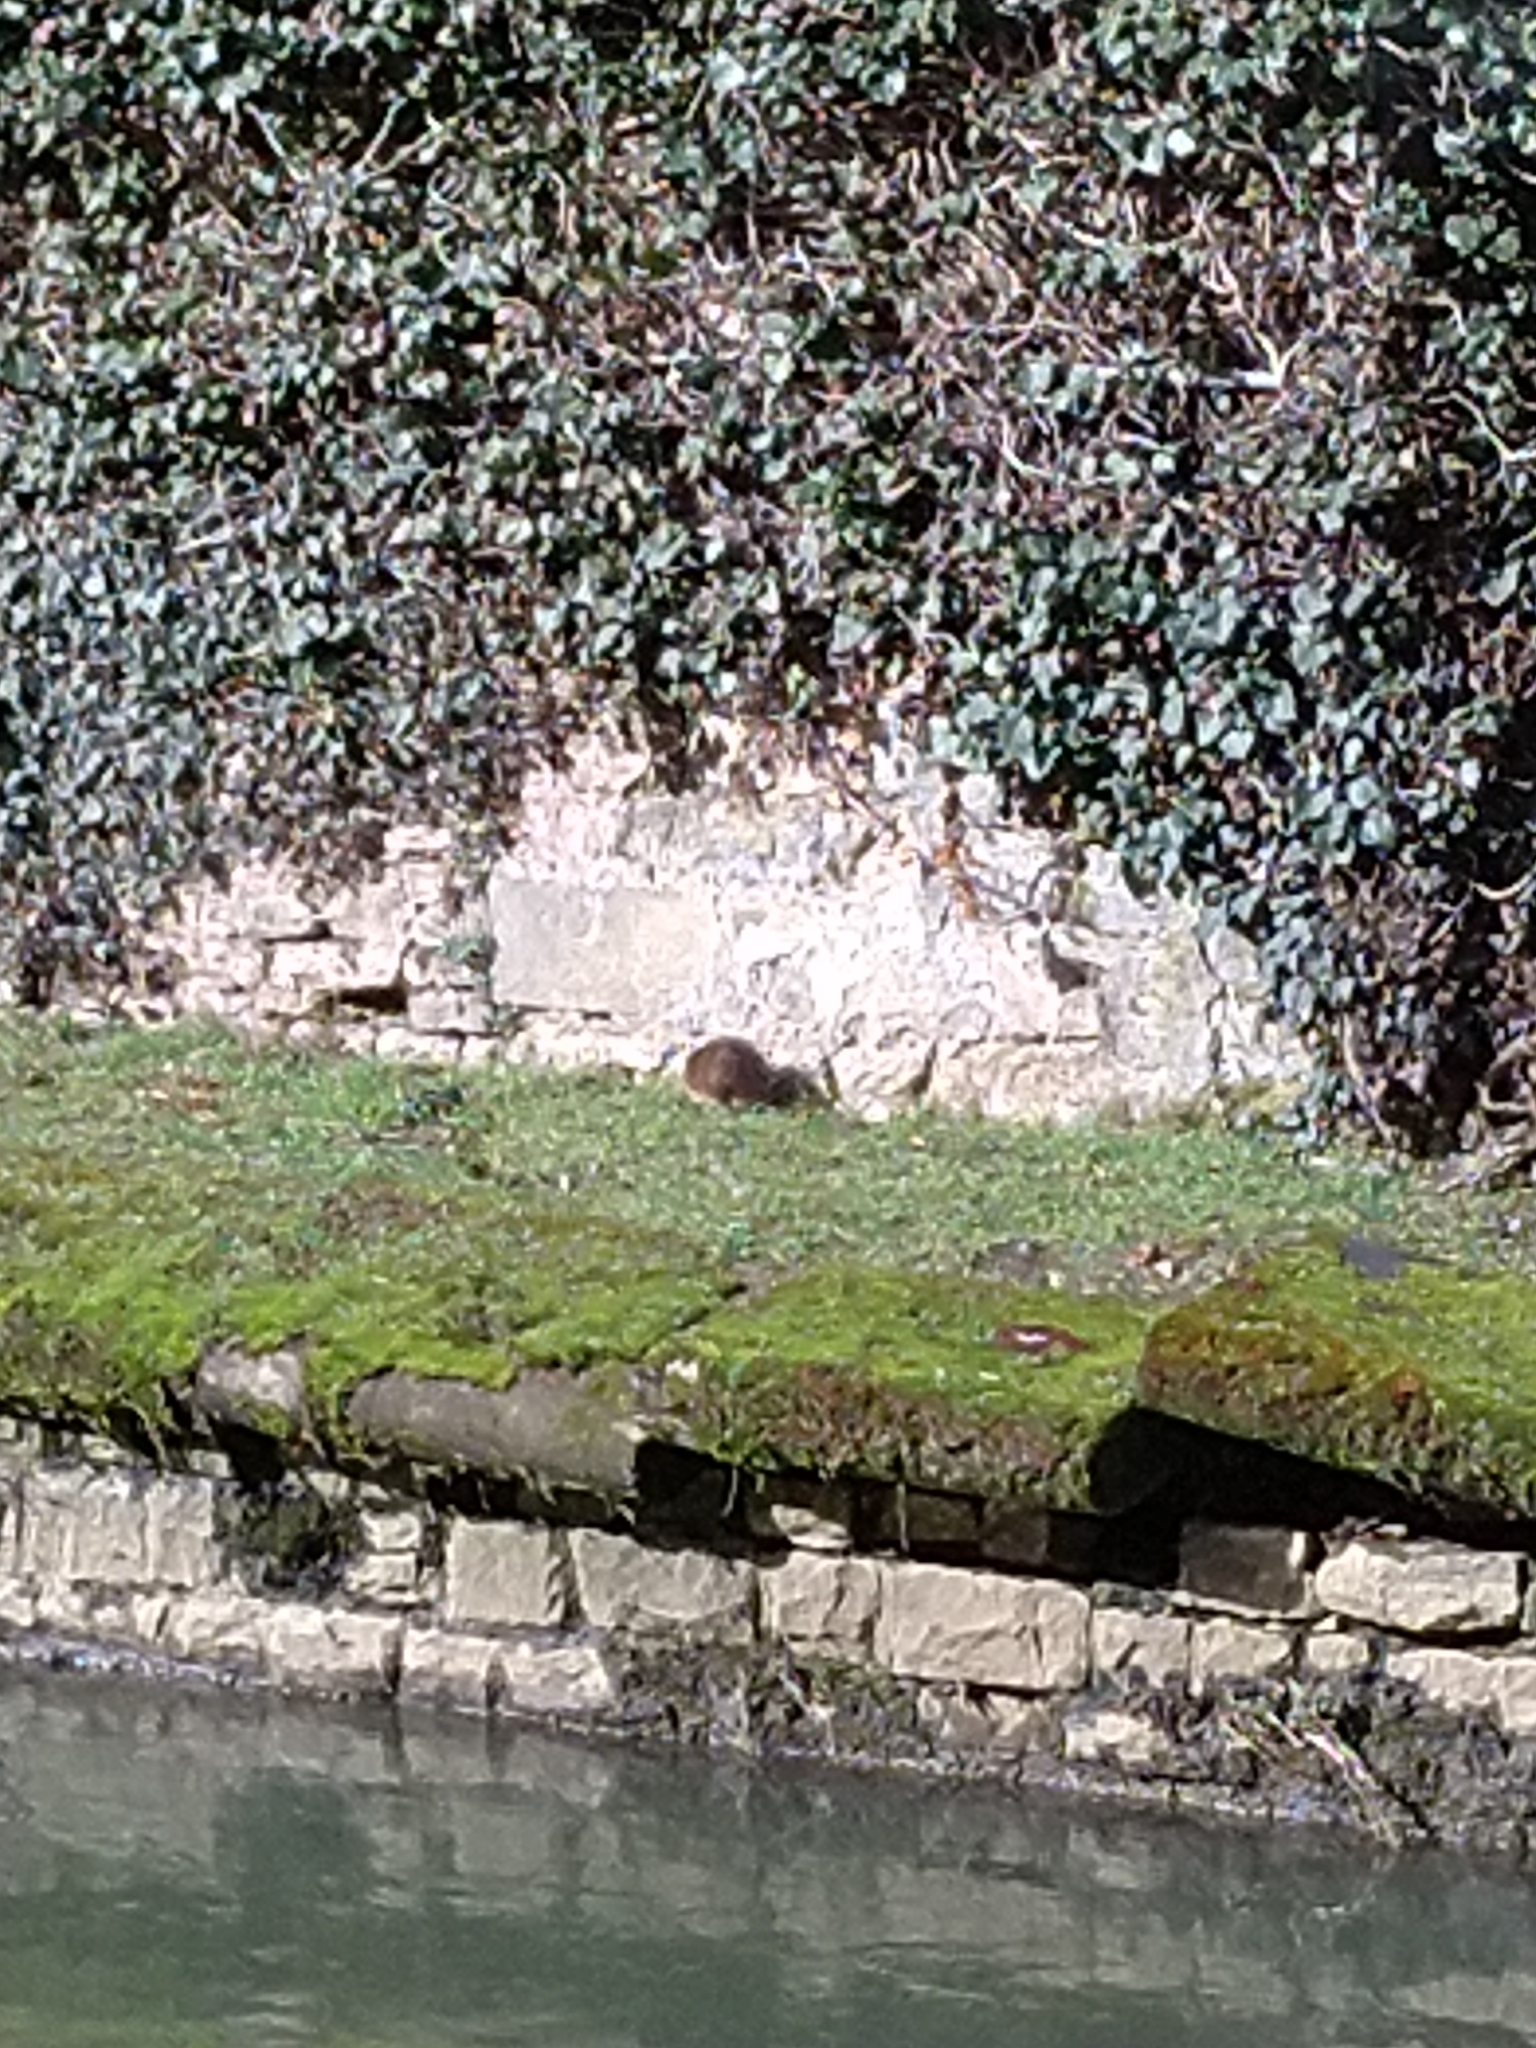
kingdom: Animalia
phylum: Chordata
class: Mammalia
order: Rodentia
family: Cricetidae
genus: Ondatra
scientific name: Ondatra zibethicus
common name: Muskrat
